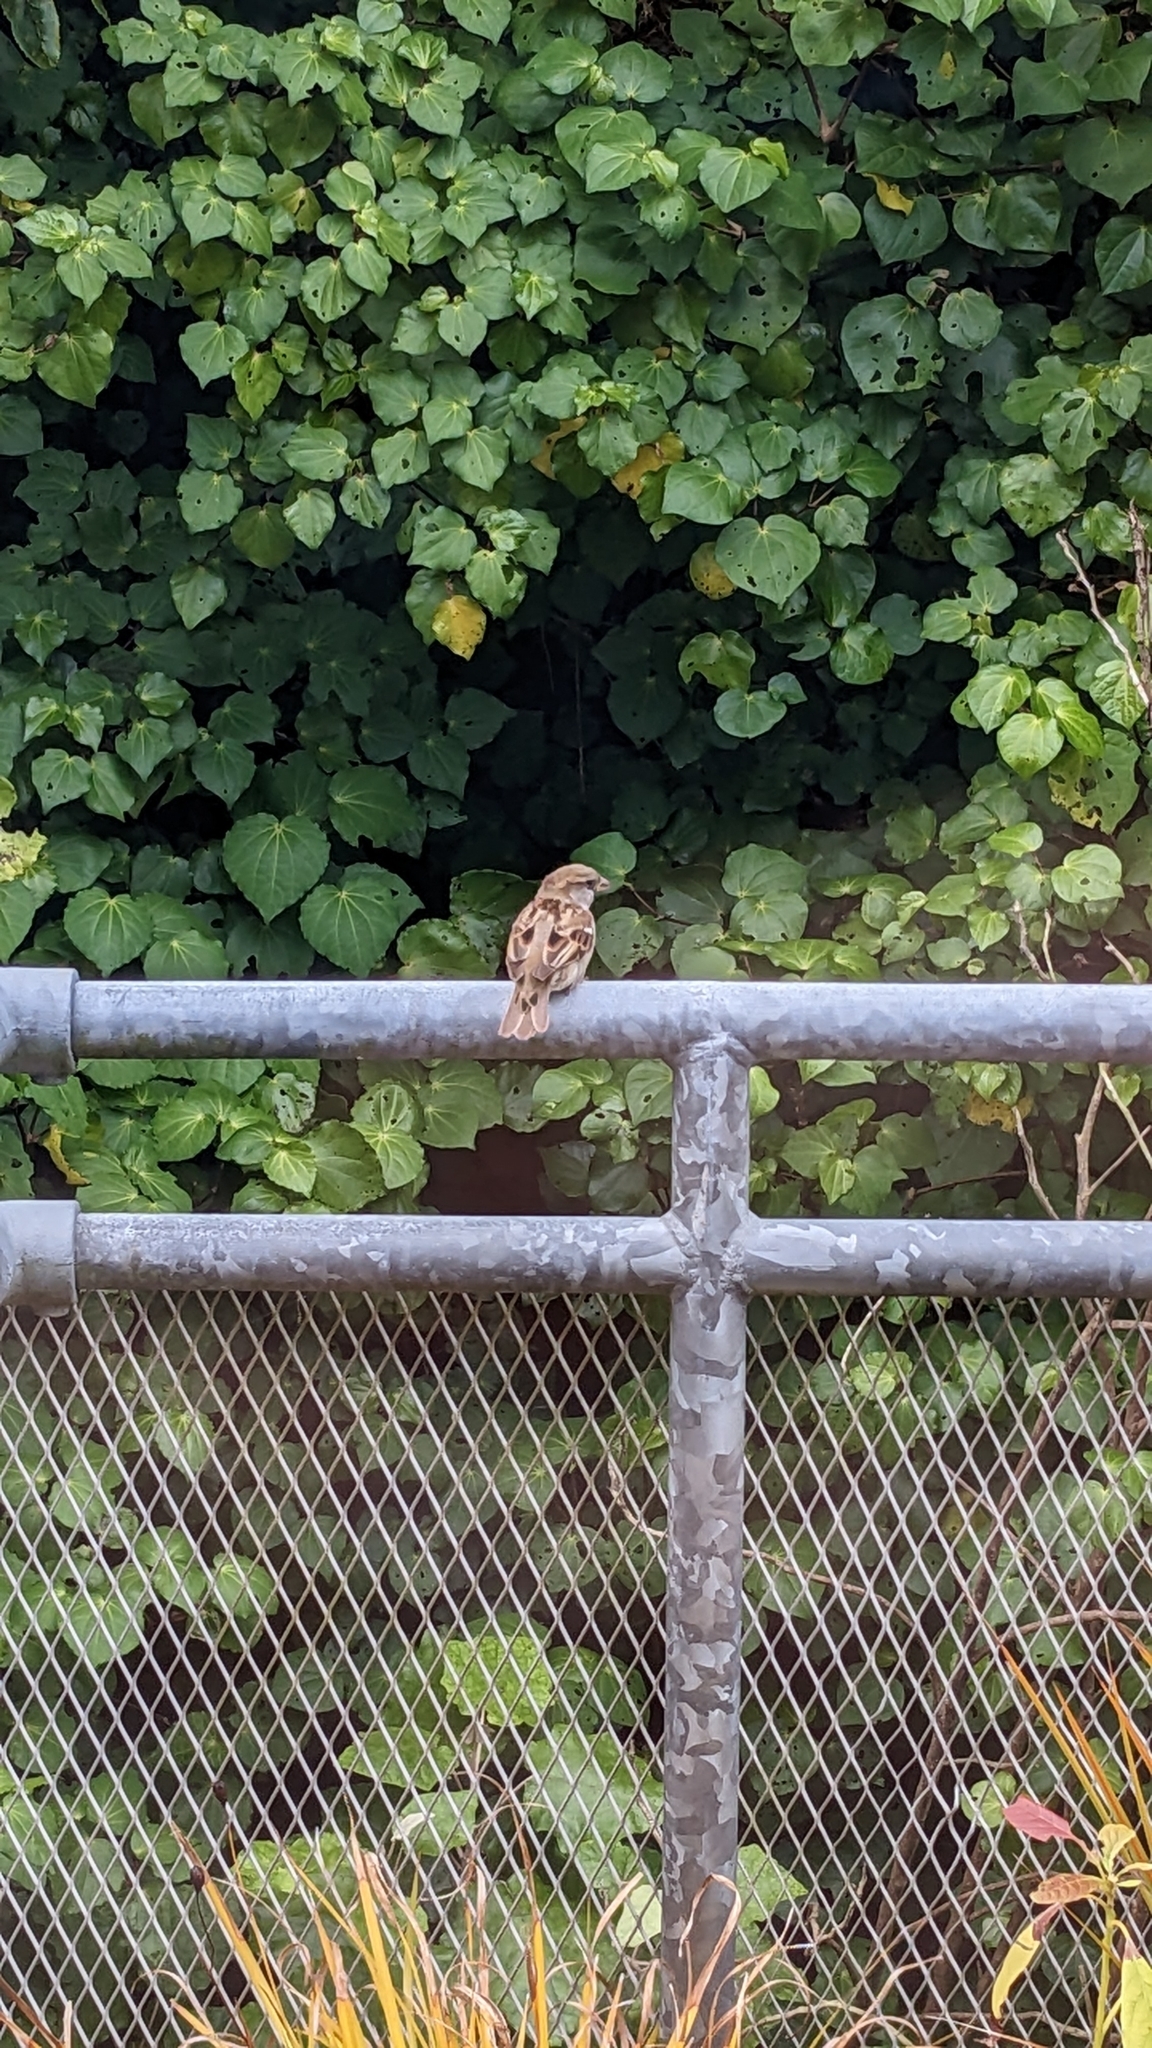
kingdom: Animalia
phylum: Chordata
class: Aves
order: Passeriformes
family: Passeridae
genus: Passer
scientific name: Passer domesticus
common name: House sparrow
